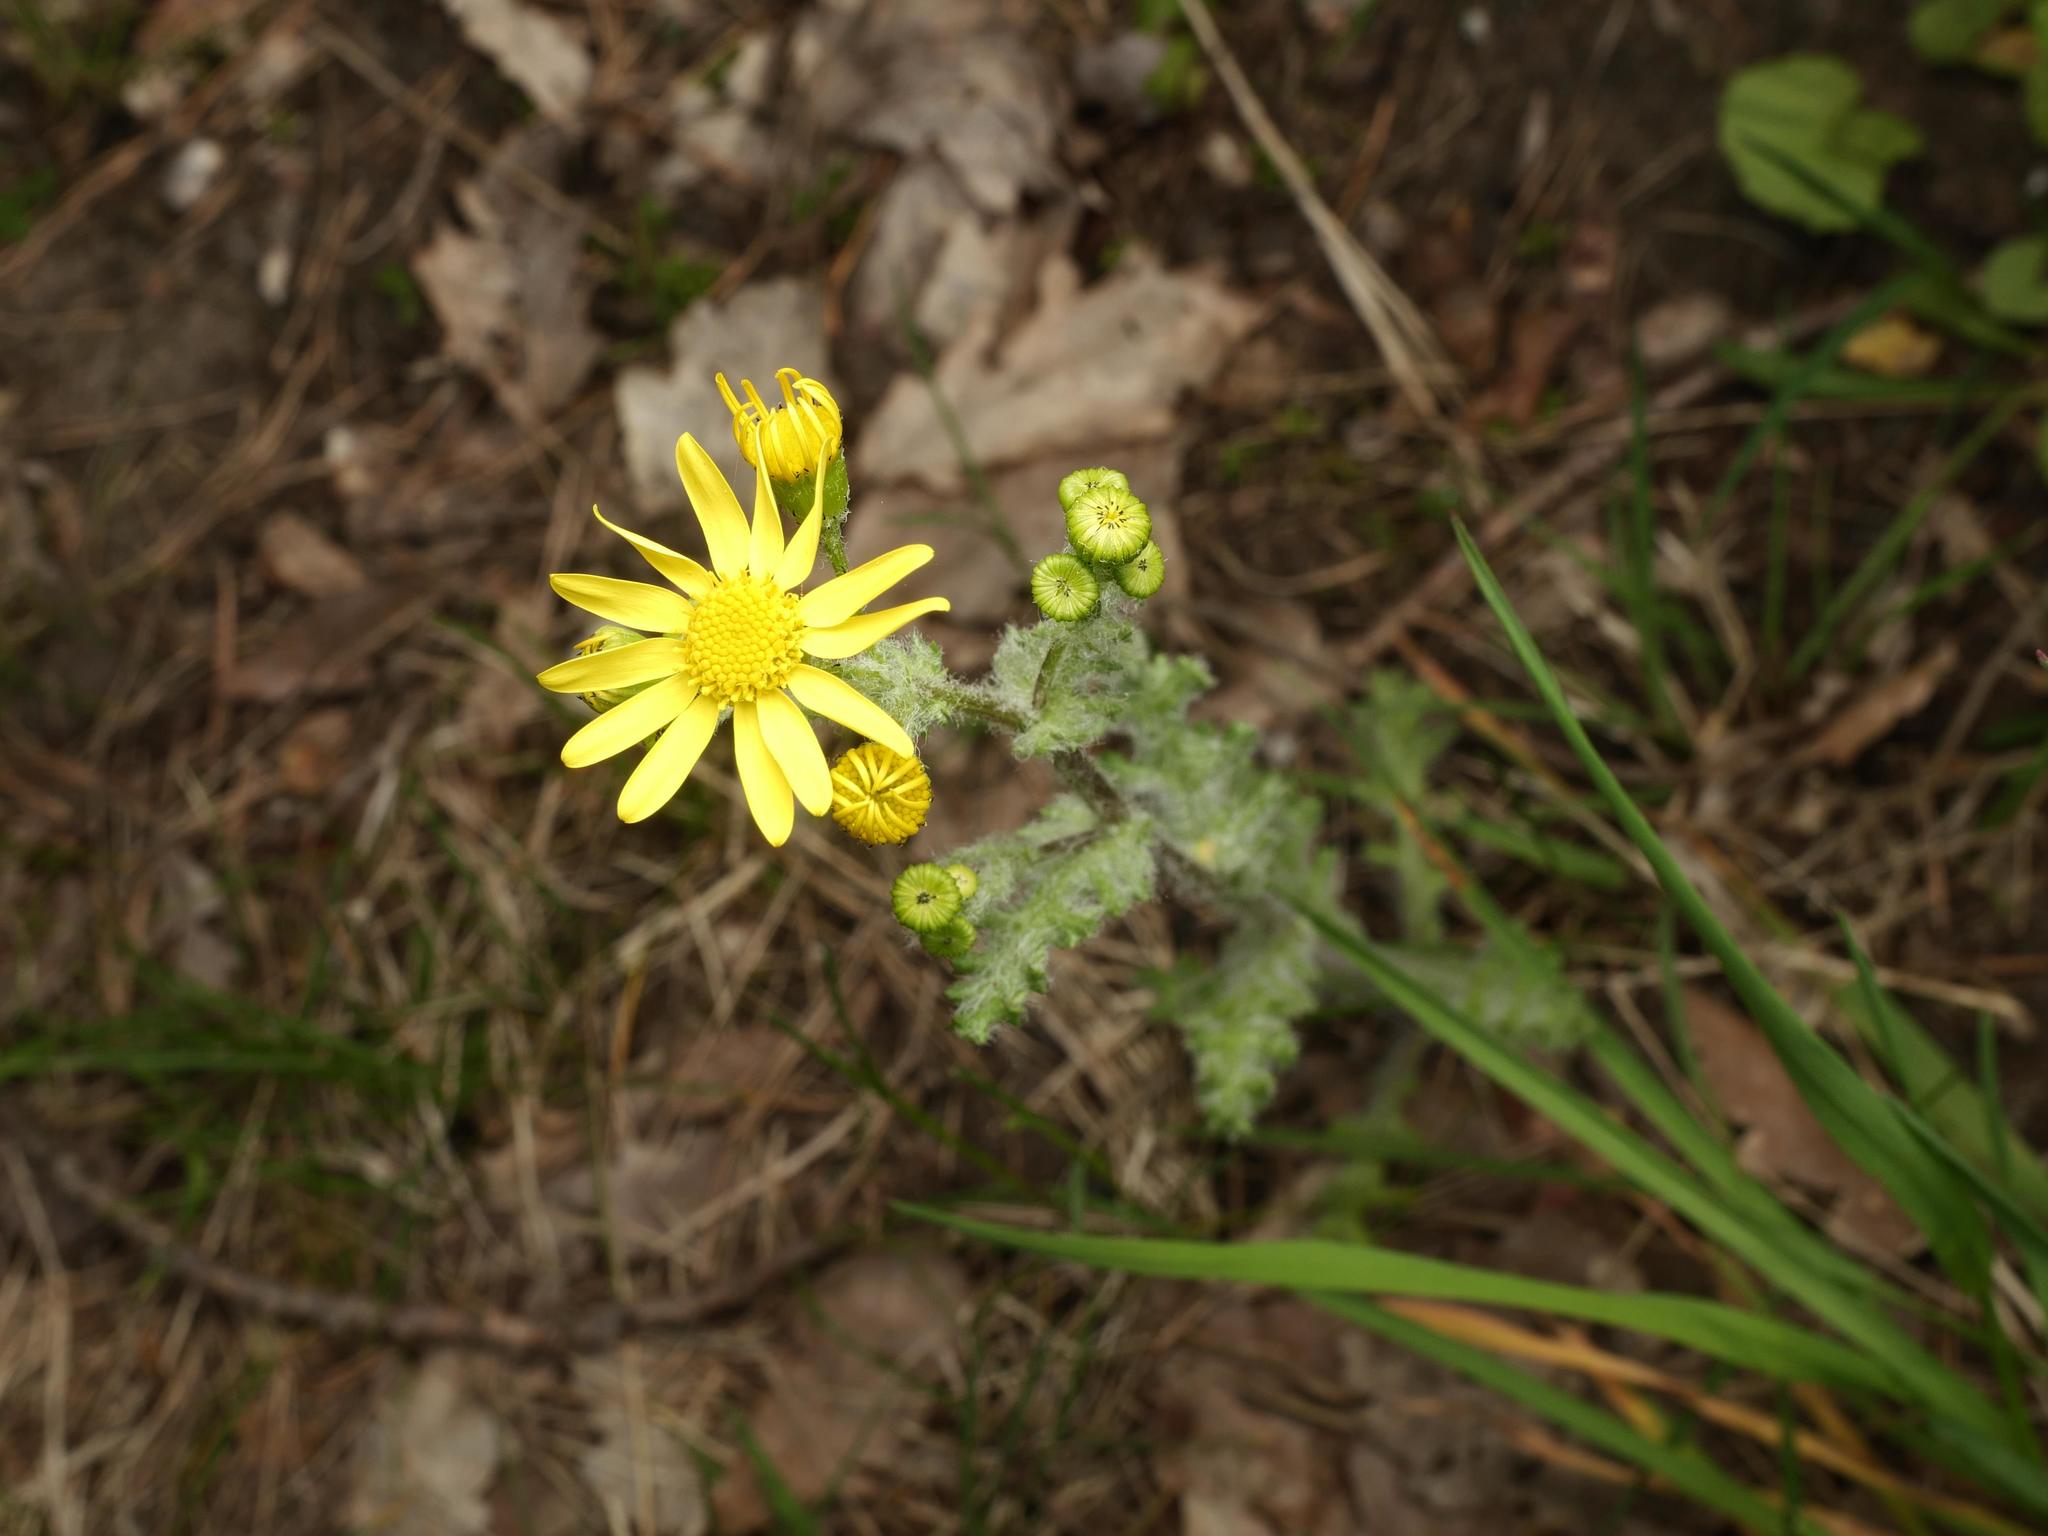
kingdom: Plantae
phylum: Tracheophyta
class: Magnoliopsida
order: Asterales
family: Asteraceae
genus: Senecio
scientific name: Senecio vernalis
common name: Eastern groundsel
